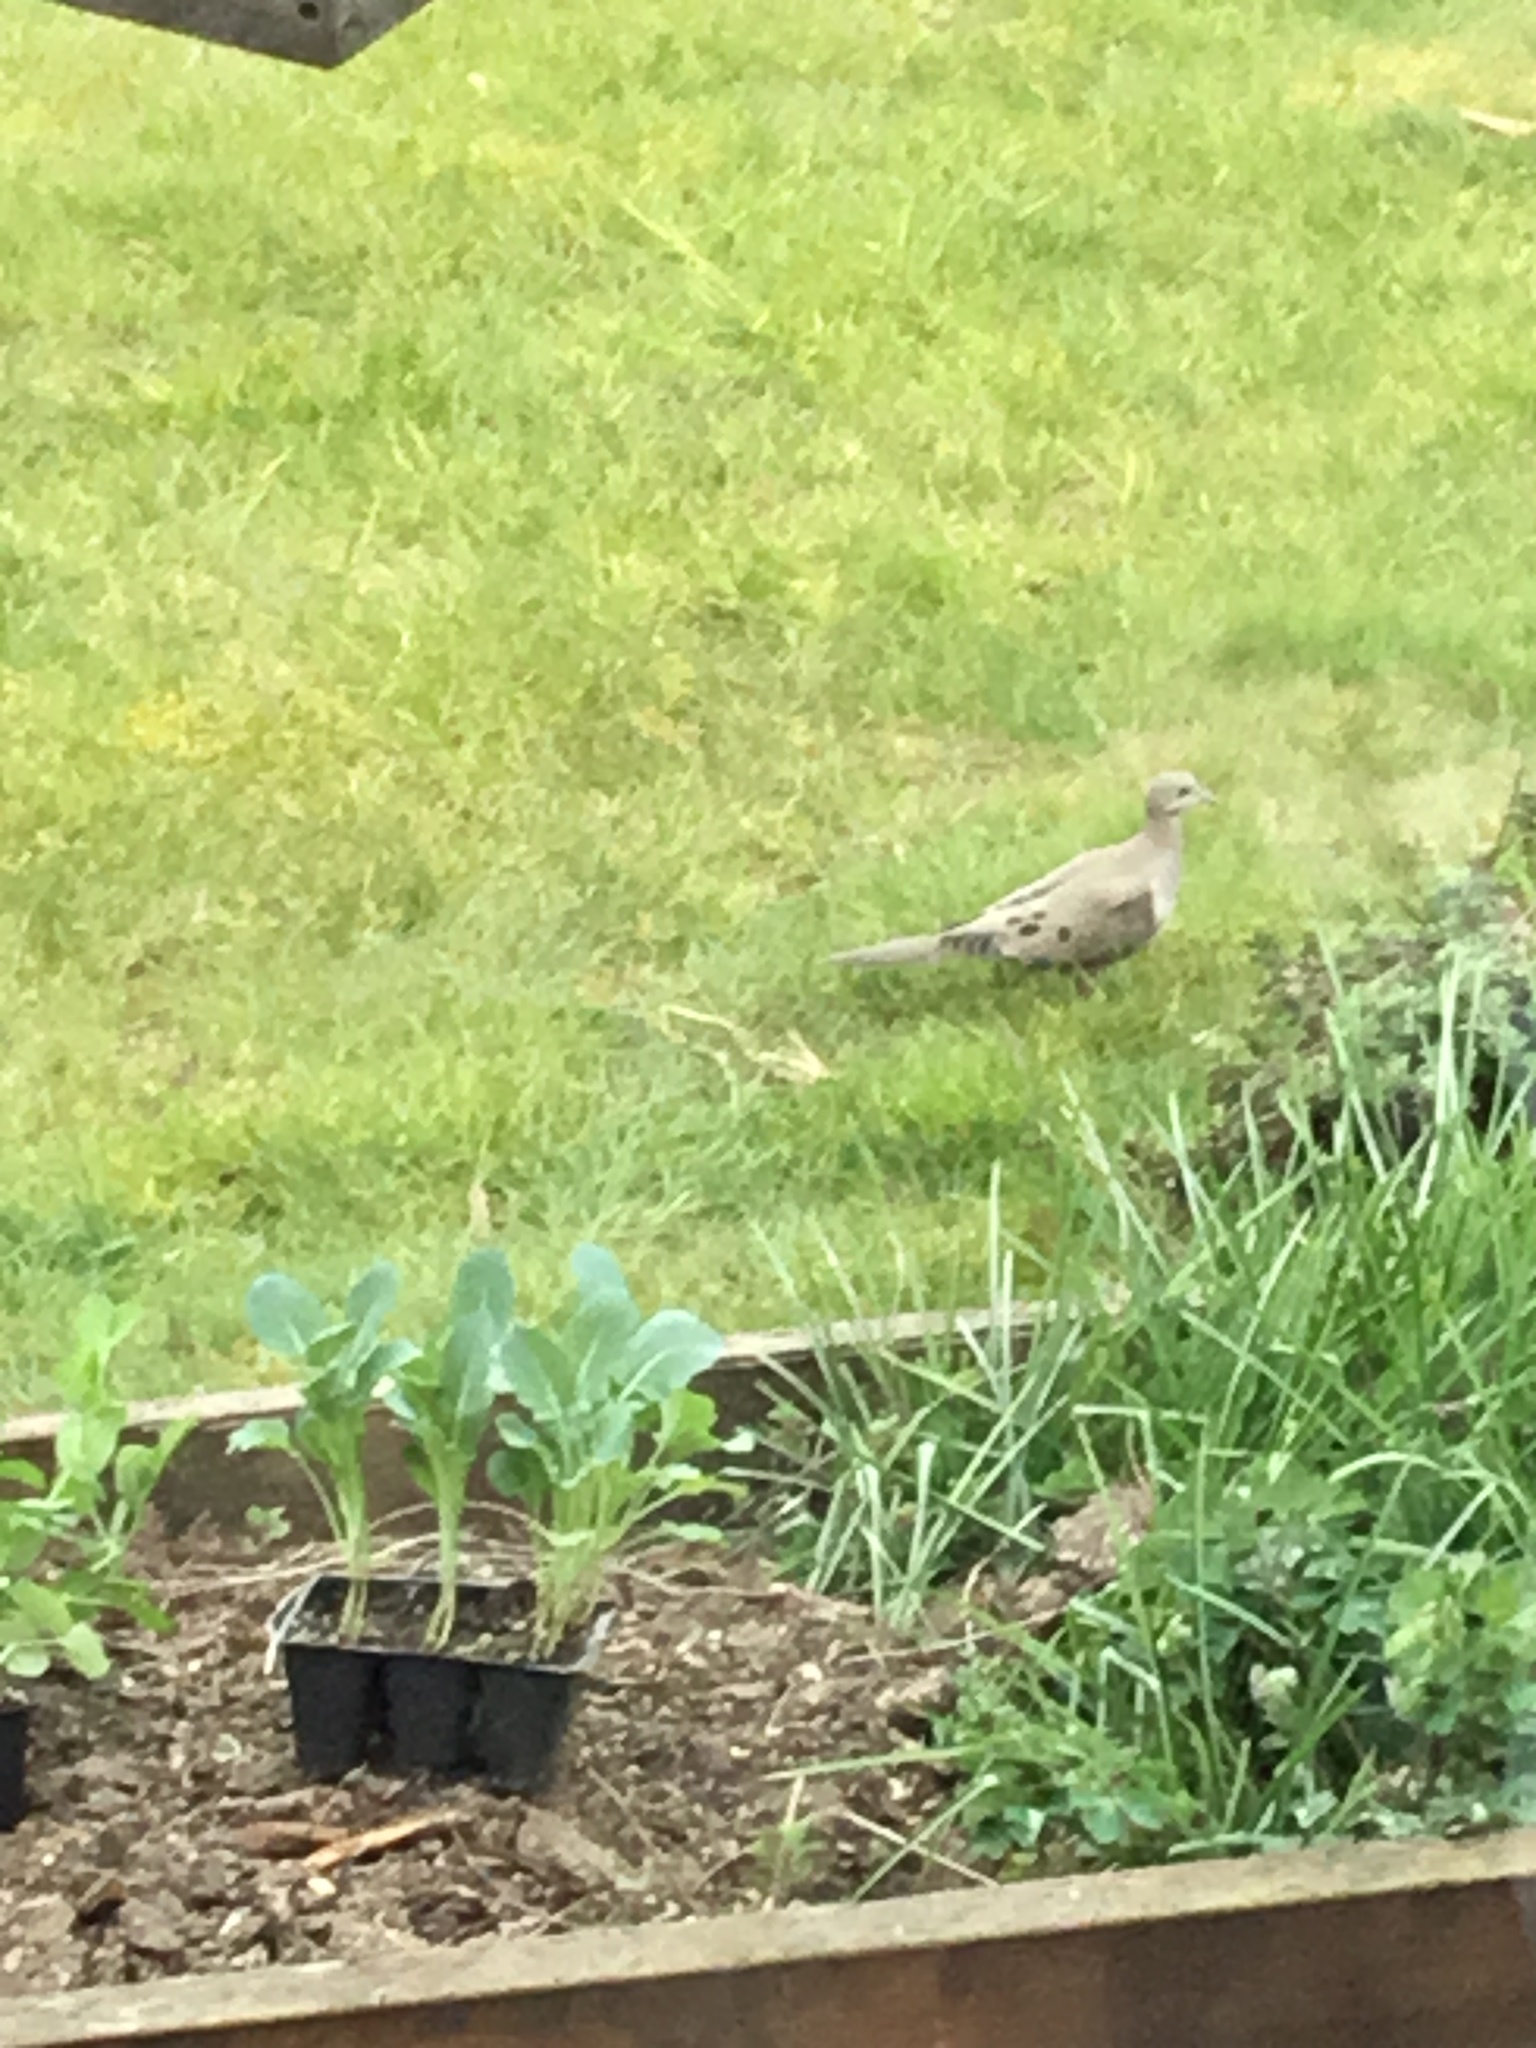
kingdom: Animalia
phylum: Chordata
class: Aves
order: Columbiformes
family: Columbidae
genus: Zenaida
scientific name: Zenaida macroura
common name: Mourning dove
